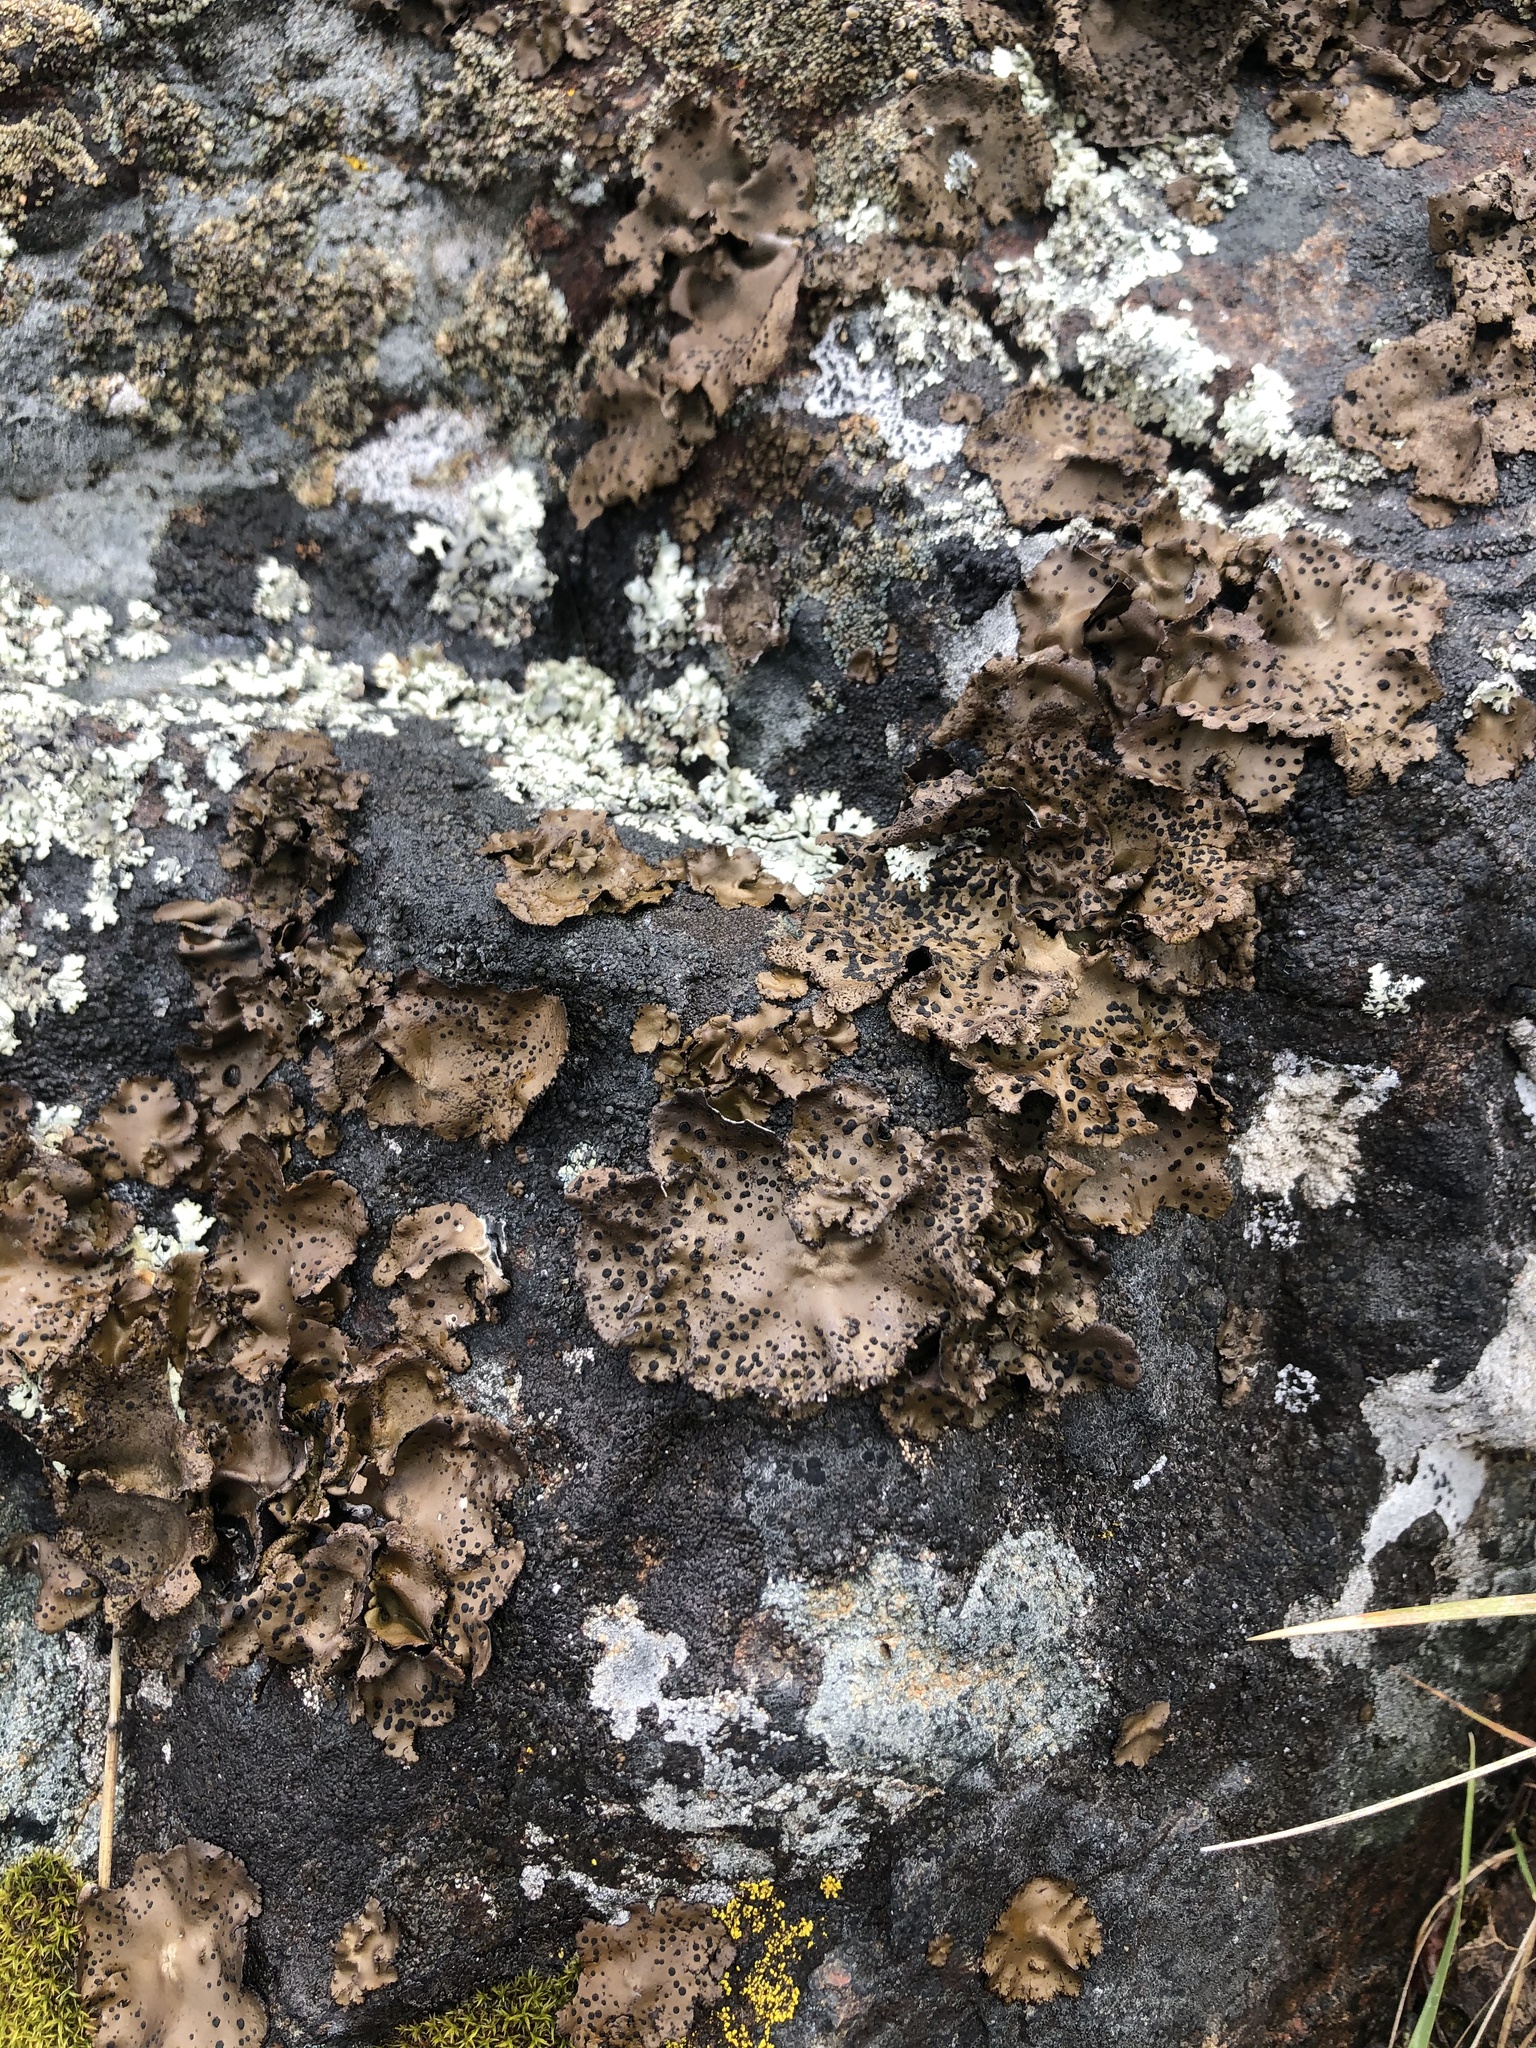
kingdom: Fungi
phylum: Ascomycota
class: Lecanoromycetes
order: Umbilicariales
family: Umbilicariaceae
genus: Umbilicaria
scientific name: Umbilicaria phaea
